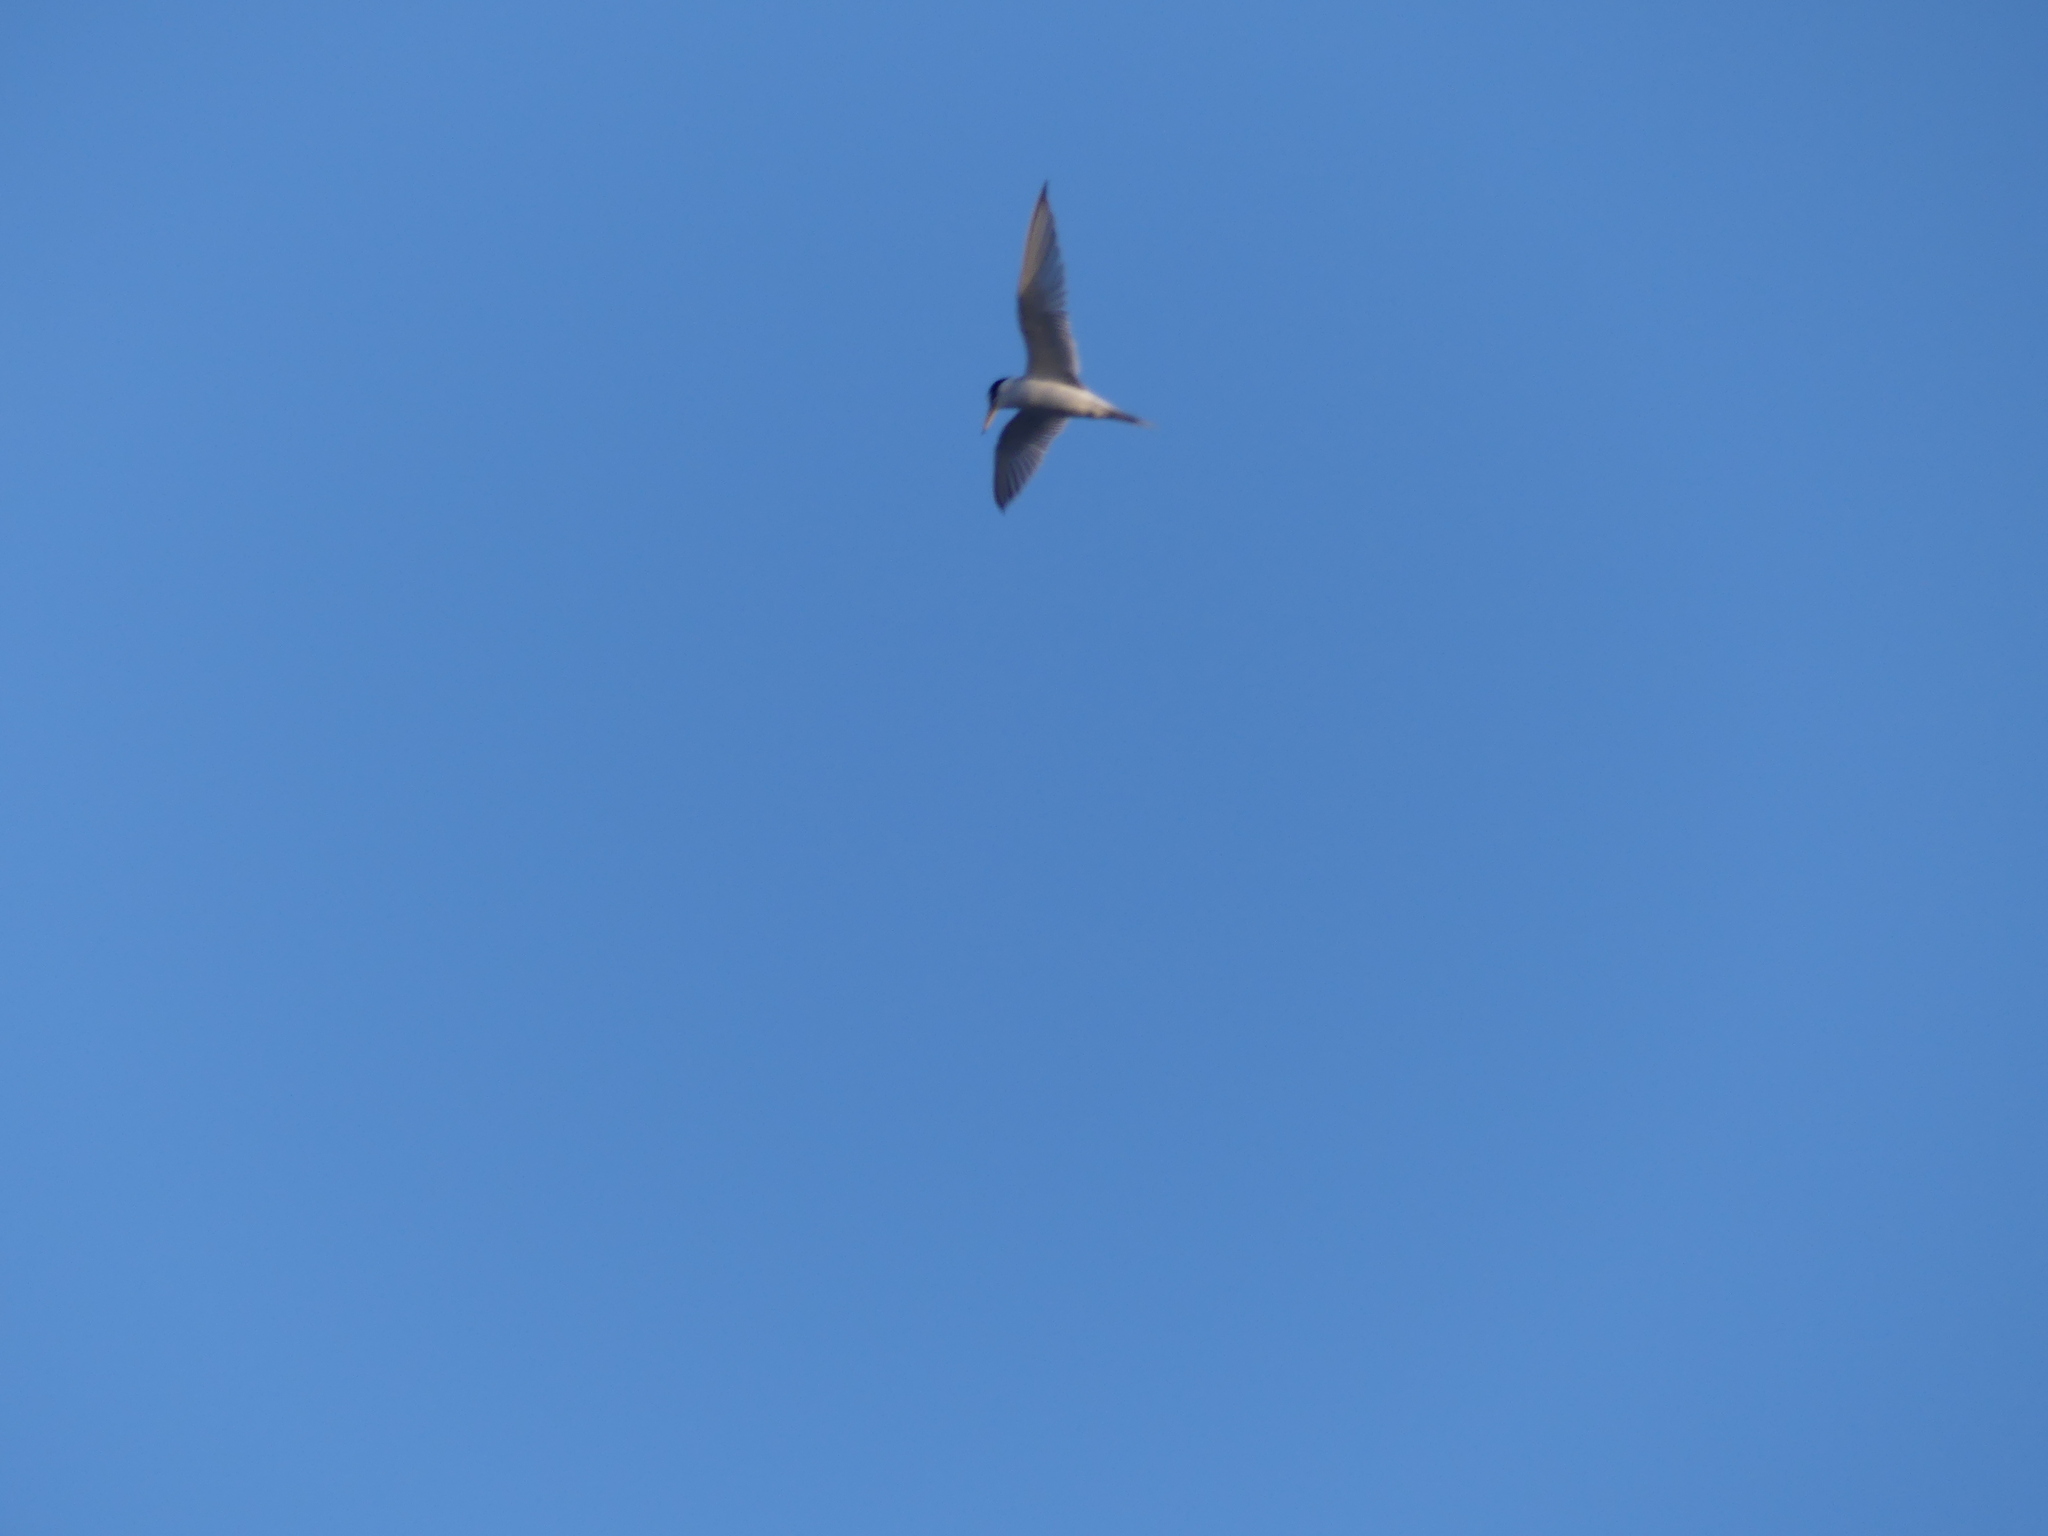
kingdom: Animalia
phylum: Chordata
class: Aves
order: Charadriiformes
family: Laridae
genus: Sternula
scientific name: Sternula albifrons
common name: Little tern
